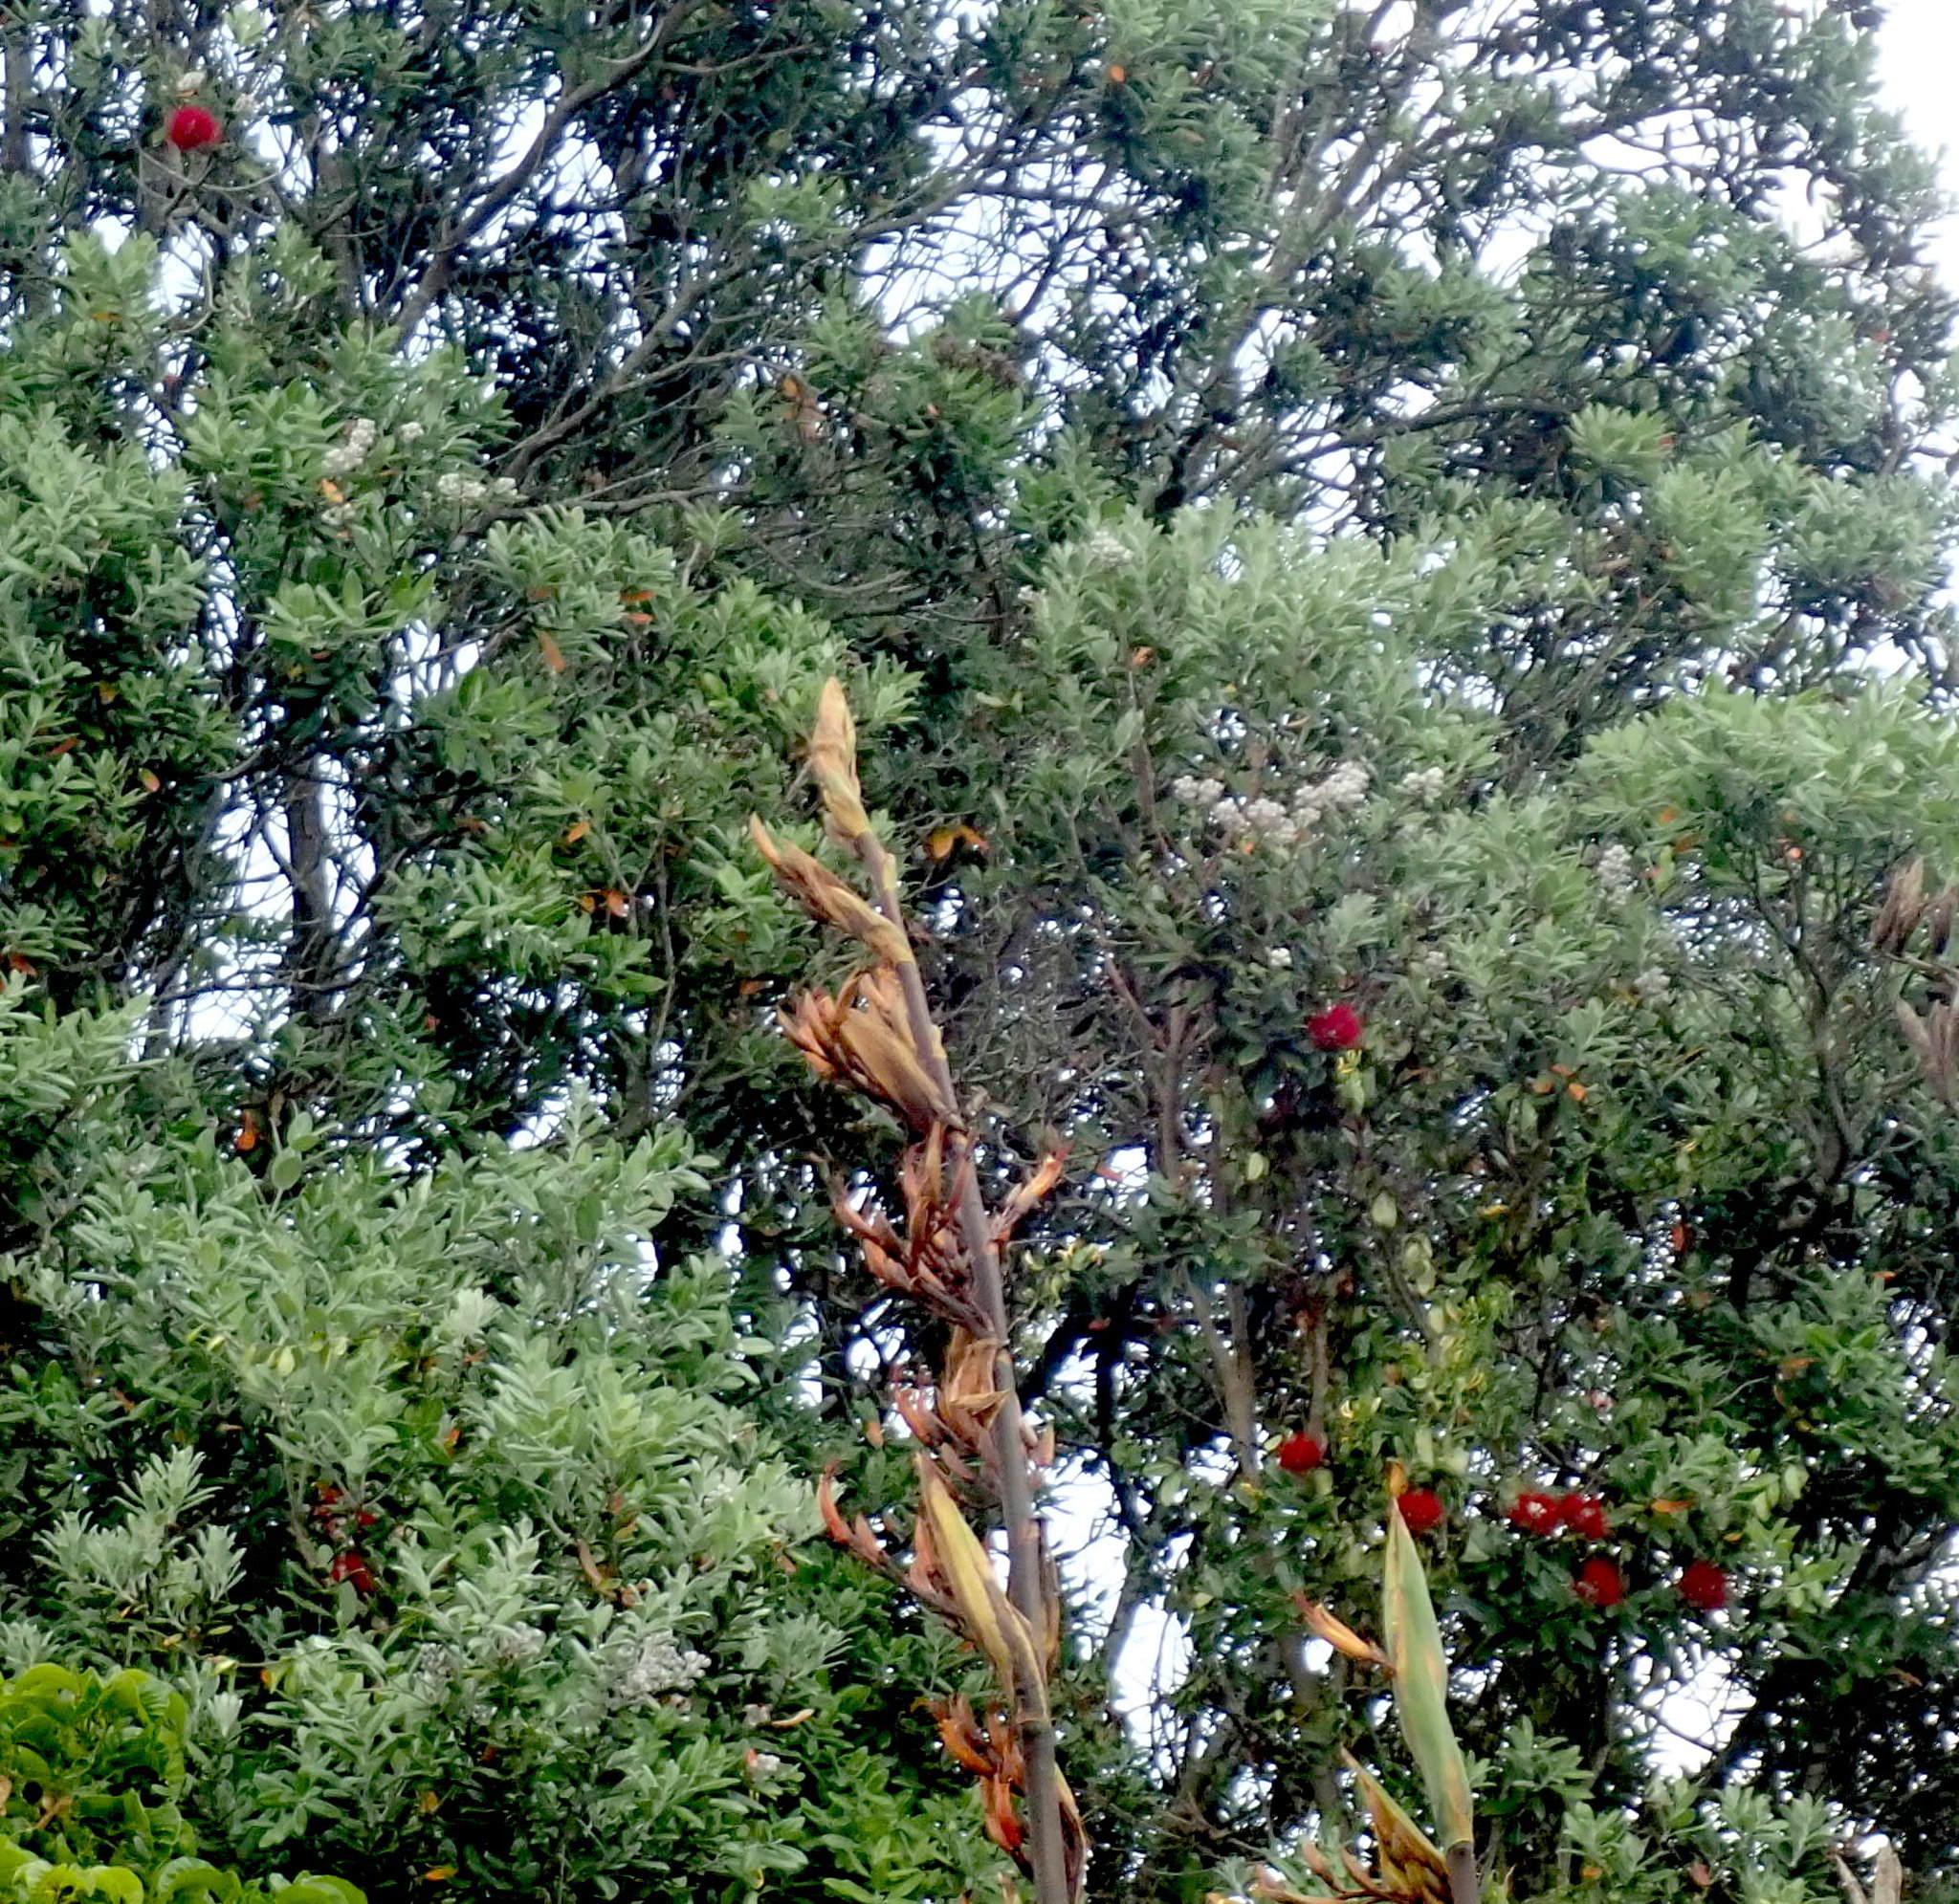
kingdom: Plantae
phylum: Tracheophyta
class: Liliopsida
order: Asparagales
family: Asphodelaceae
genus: Phormium
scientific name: Phormium tenax
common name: New zealand flax
